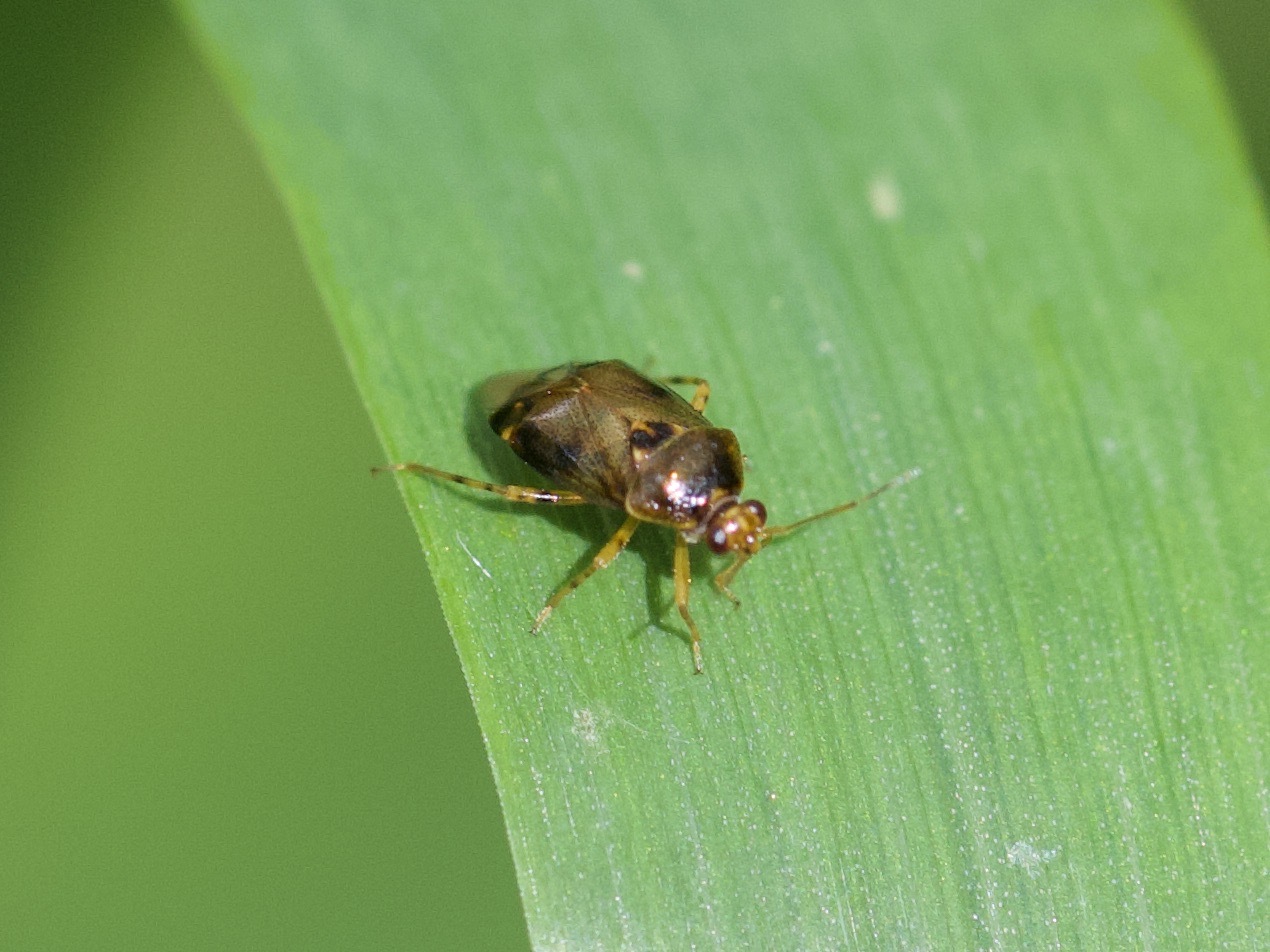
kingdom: Animalia
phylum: Arthropoda
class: Insecta
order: Hemiptera
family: Miridae
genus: Deraeocoris
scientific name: Deraeocoris lutescens
